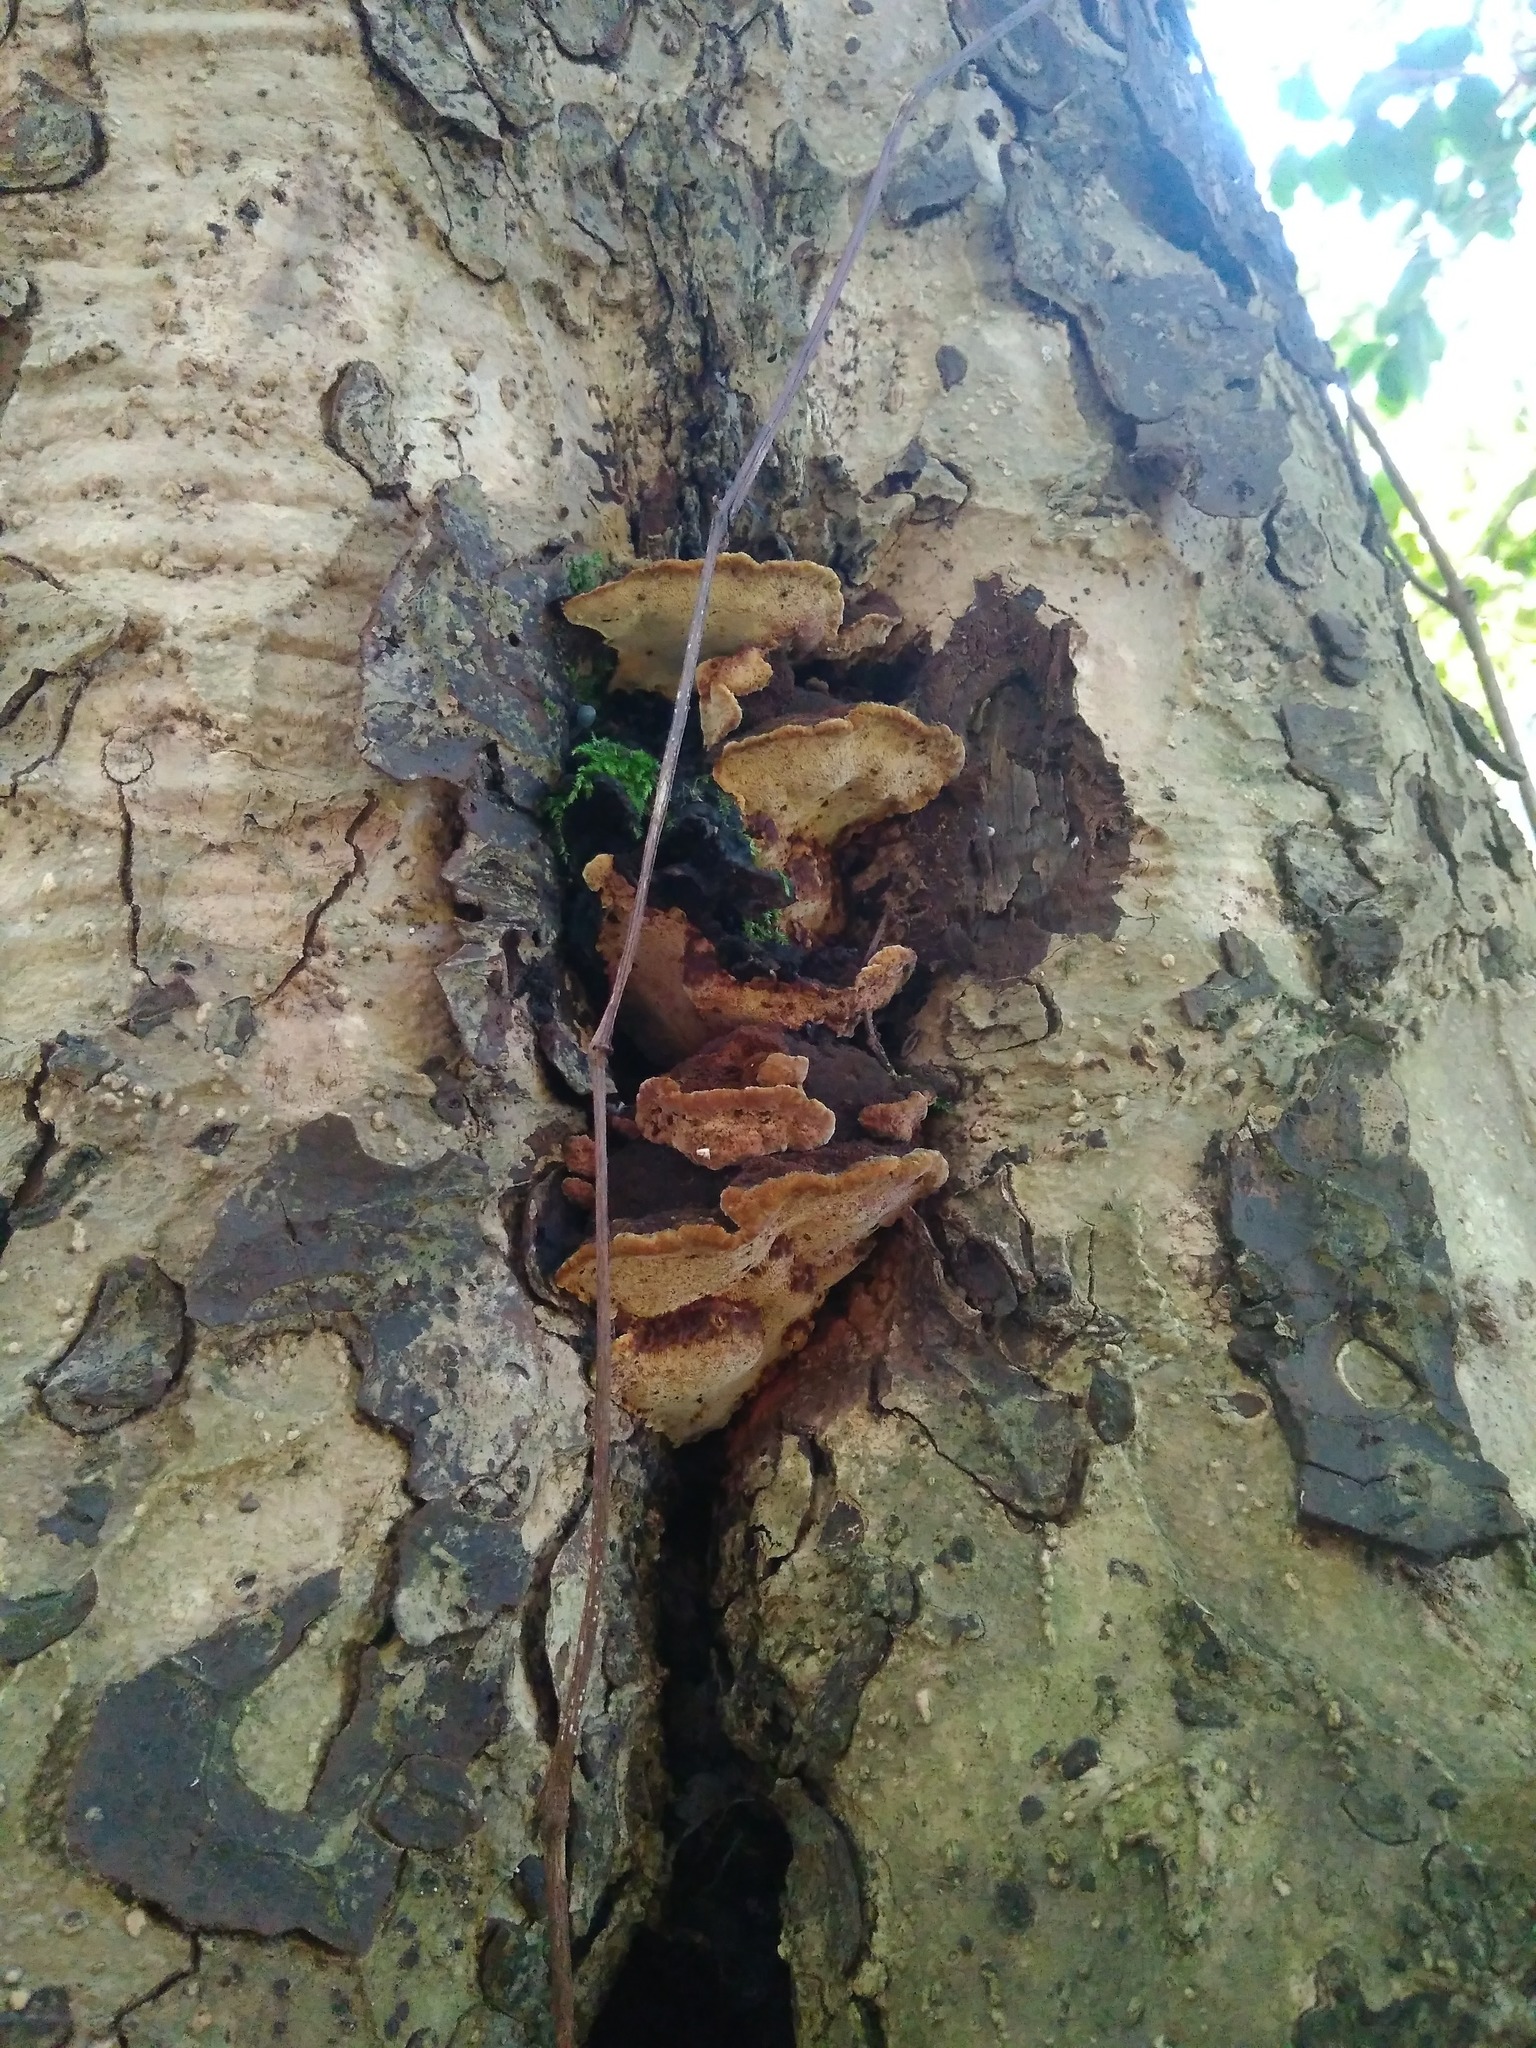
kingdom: Fungi
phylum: Basidiomycota
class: Agaricomycetes
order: Hymenochaetales
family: Hymenochaetaceae
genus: Phylloporia
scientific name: Phylloporia boldo
